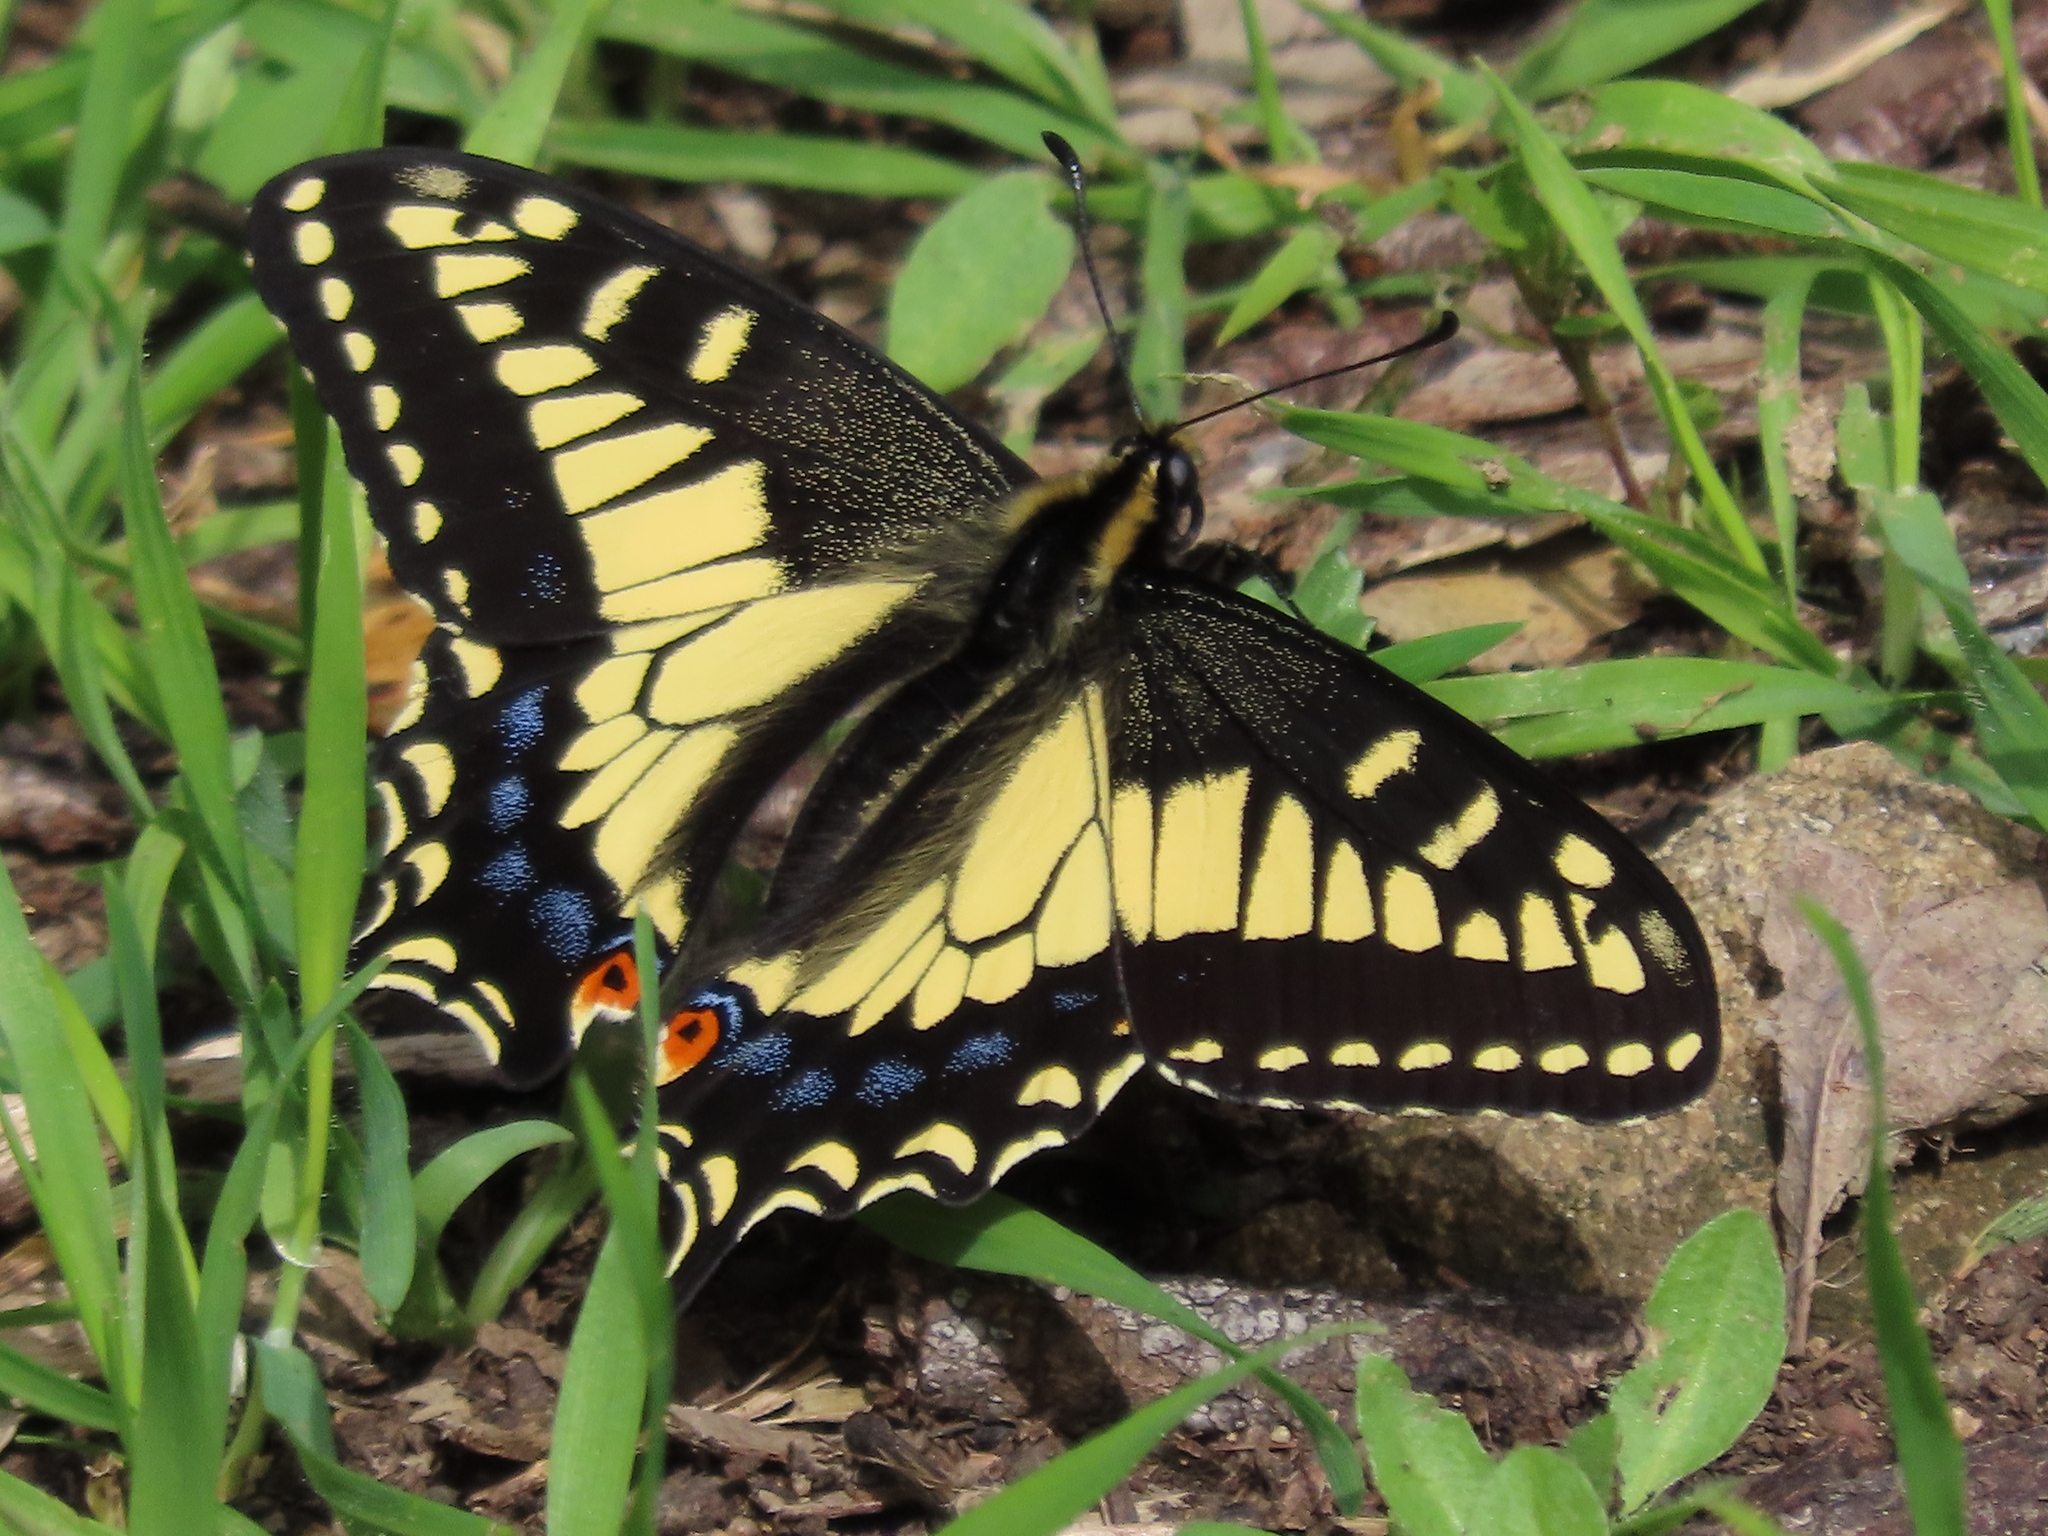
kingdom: Animalia
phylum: Arthropoda
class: Insecta
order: Lepidoptera
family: Papilionidae
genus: Papilio
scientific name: Papilio zelicaon
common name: Anise swallowtail
